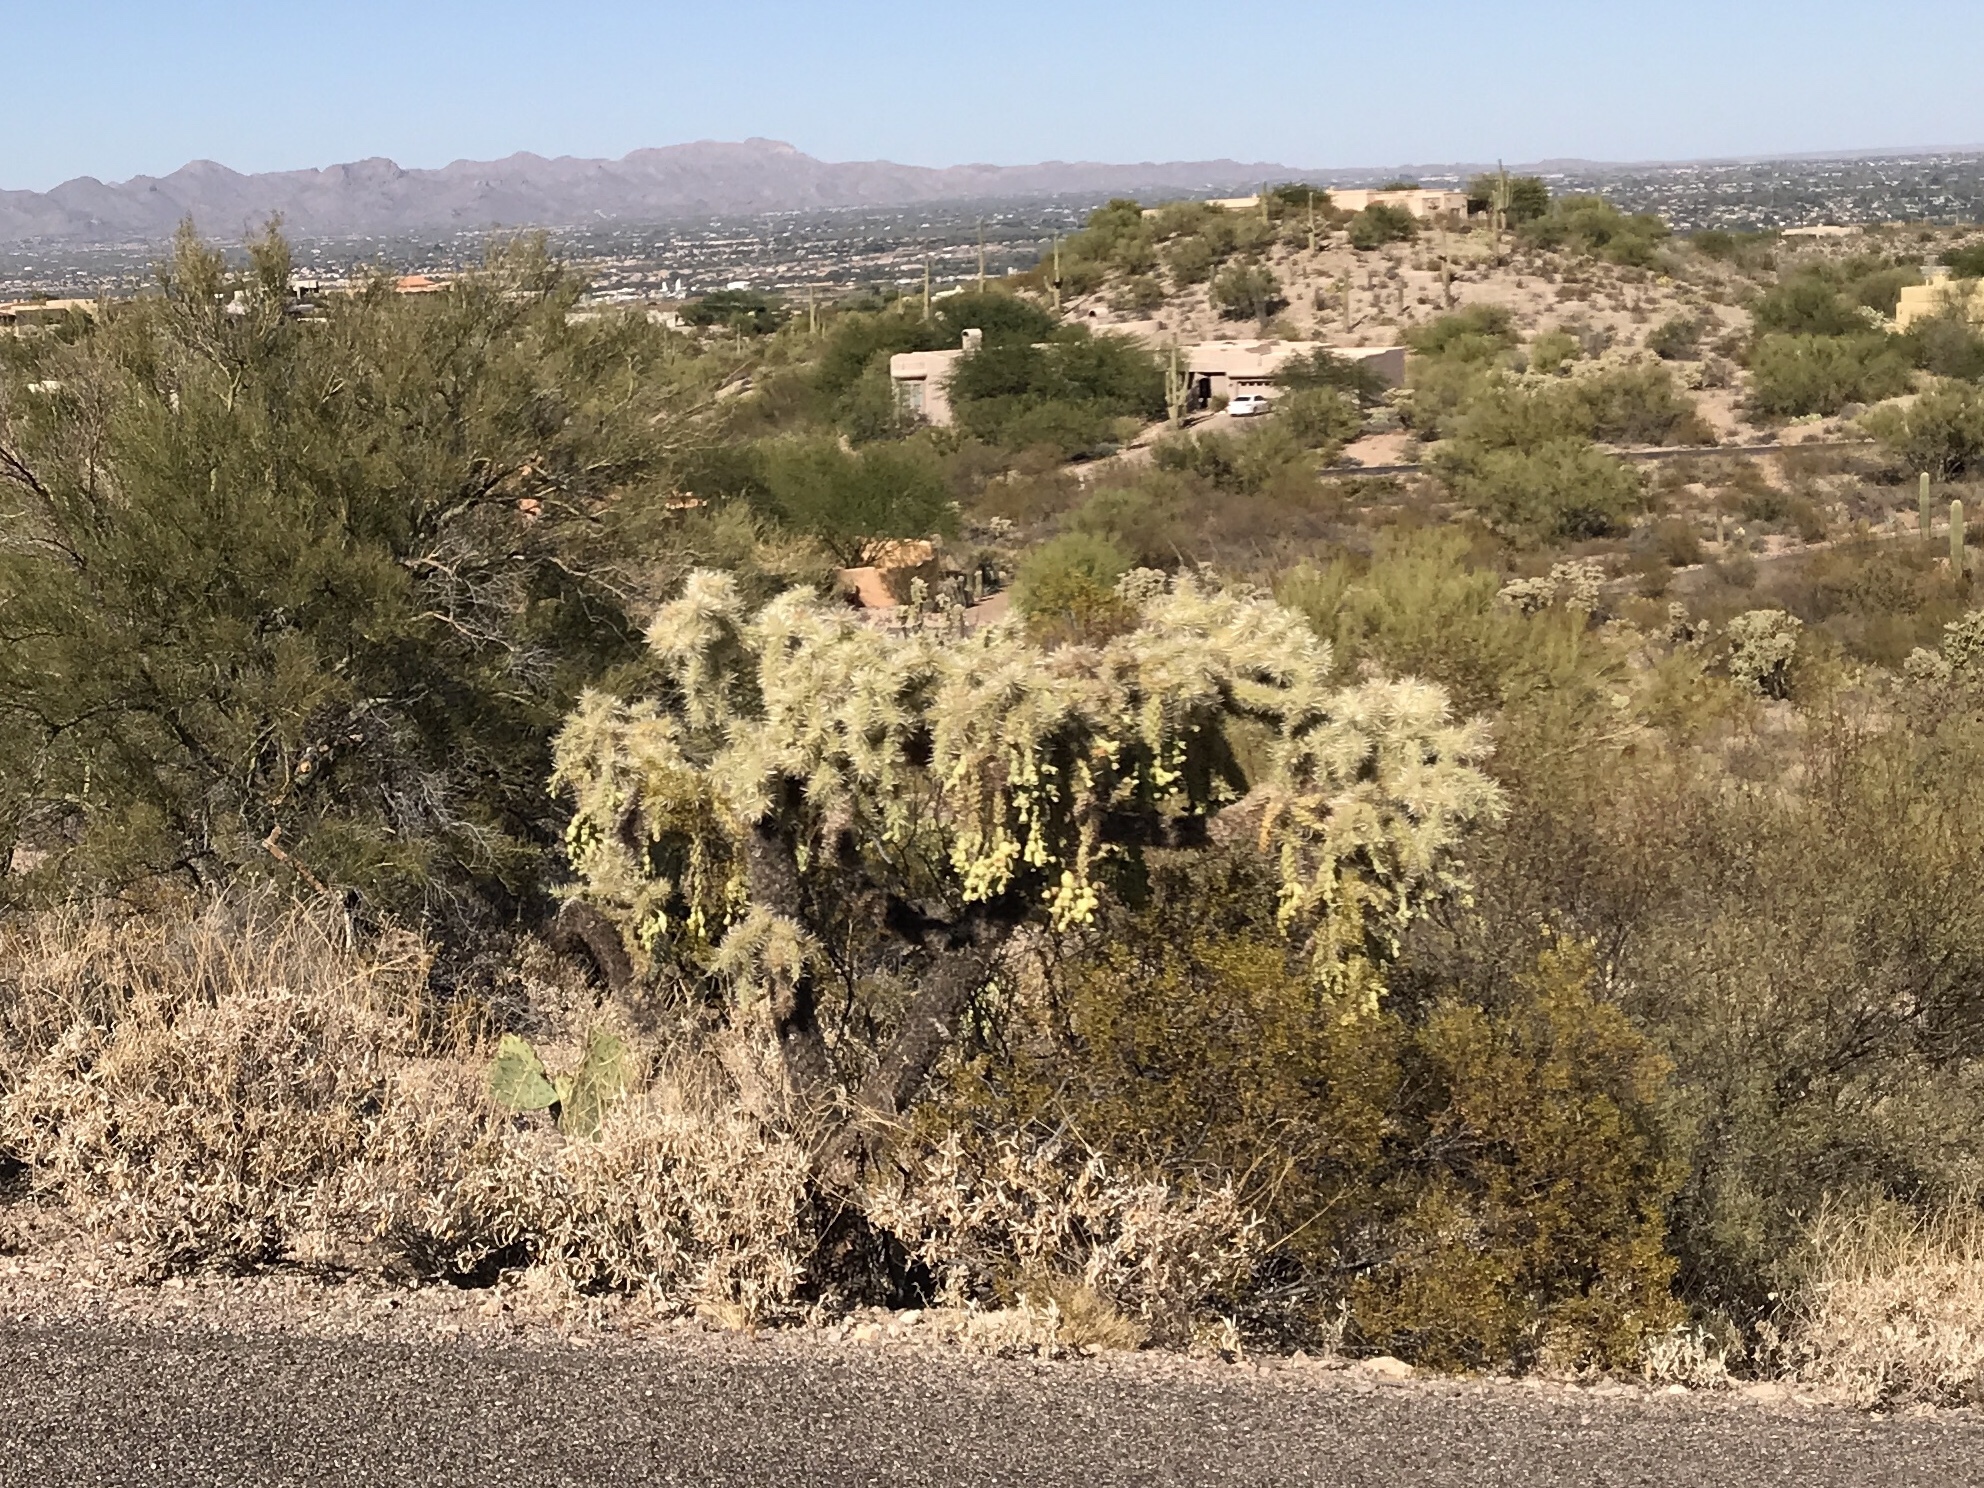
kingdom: Plantae
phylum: Tracheophyta
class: Magnoliopsida
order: Caryophyllales
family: Cactaceae
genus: Cylindropuntia
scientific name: Cylindropuntia fulgida
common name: Jumping cholla
